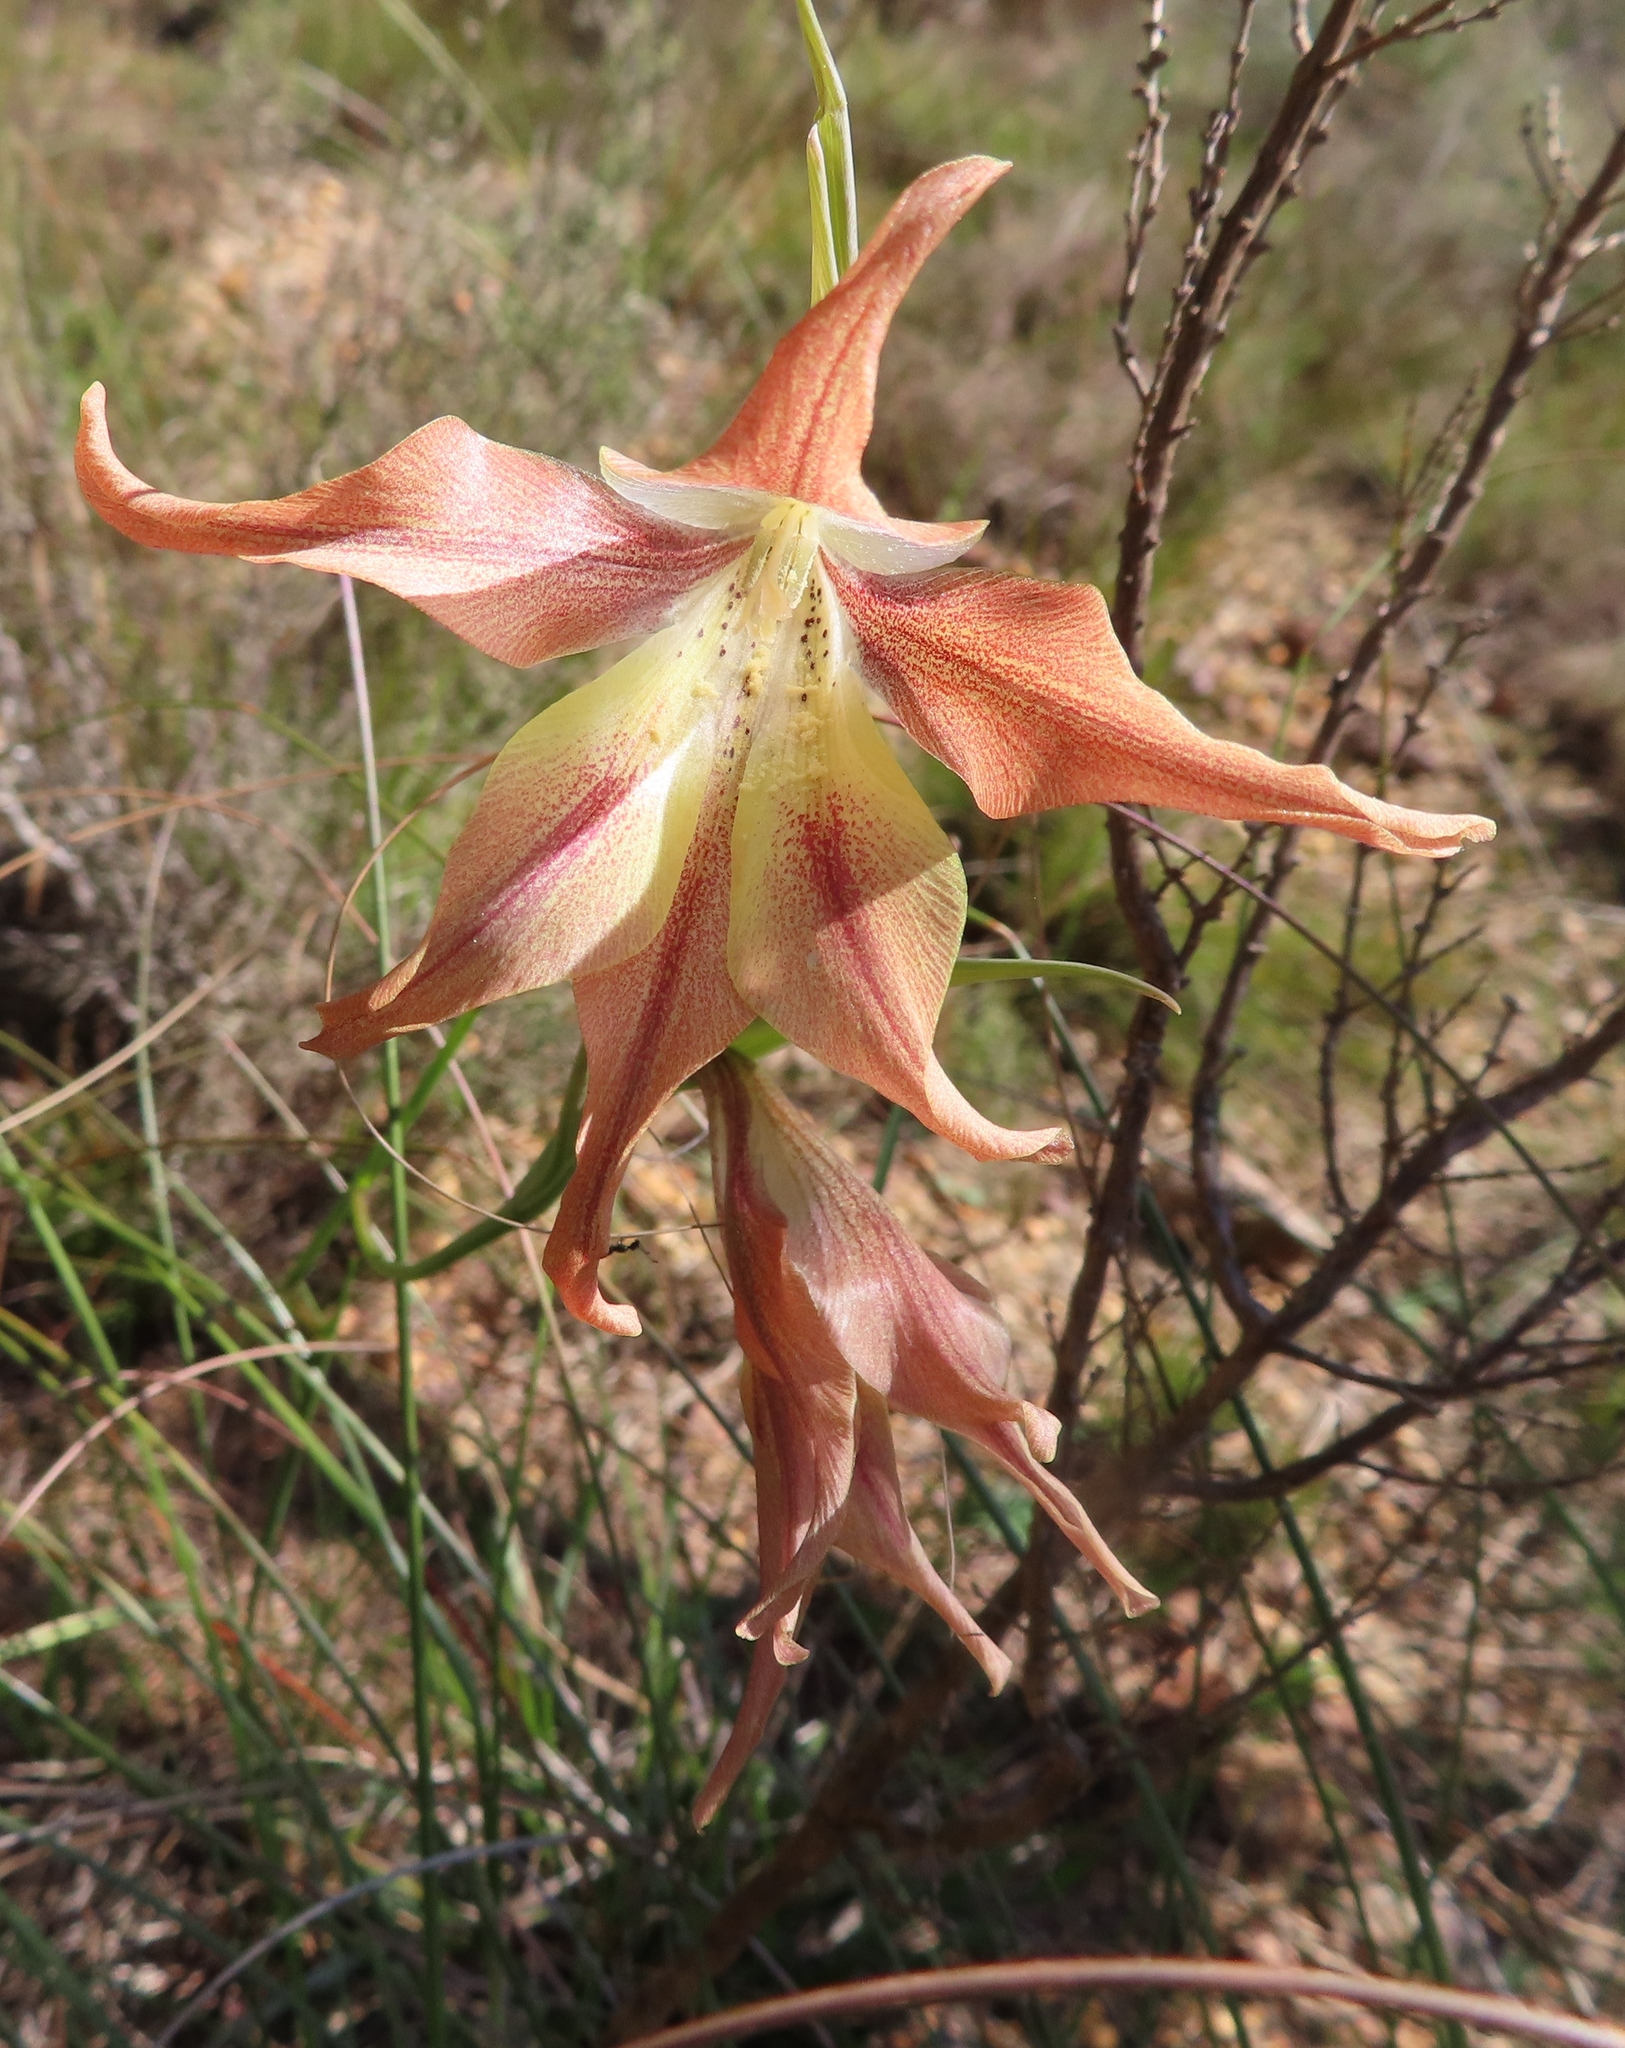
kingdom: Plantae
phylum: Tracheophyta
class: Liliopsida
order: Asparagales
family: Iridaceae
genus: Gladiolus
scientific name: Gladiolus liliaceus
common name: Large brown afrikaner
